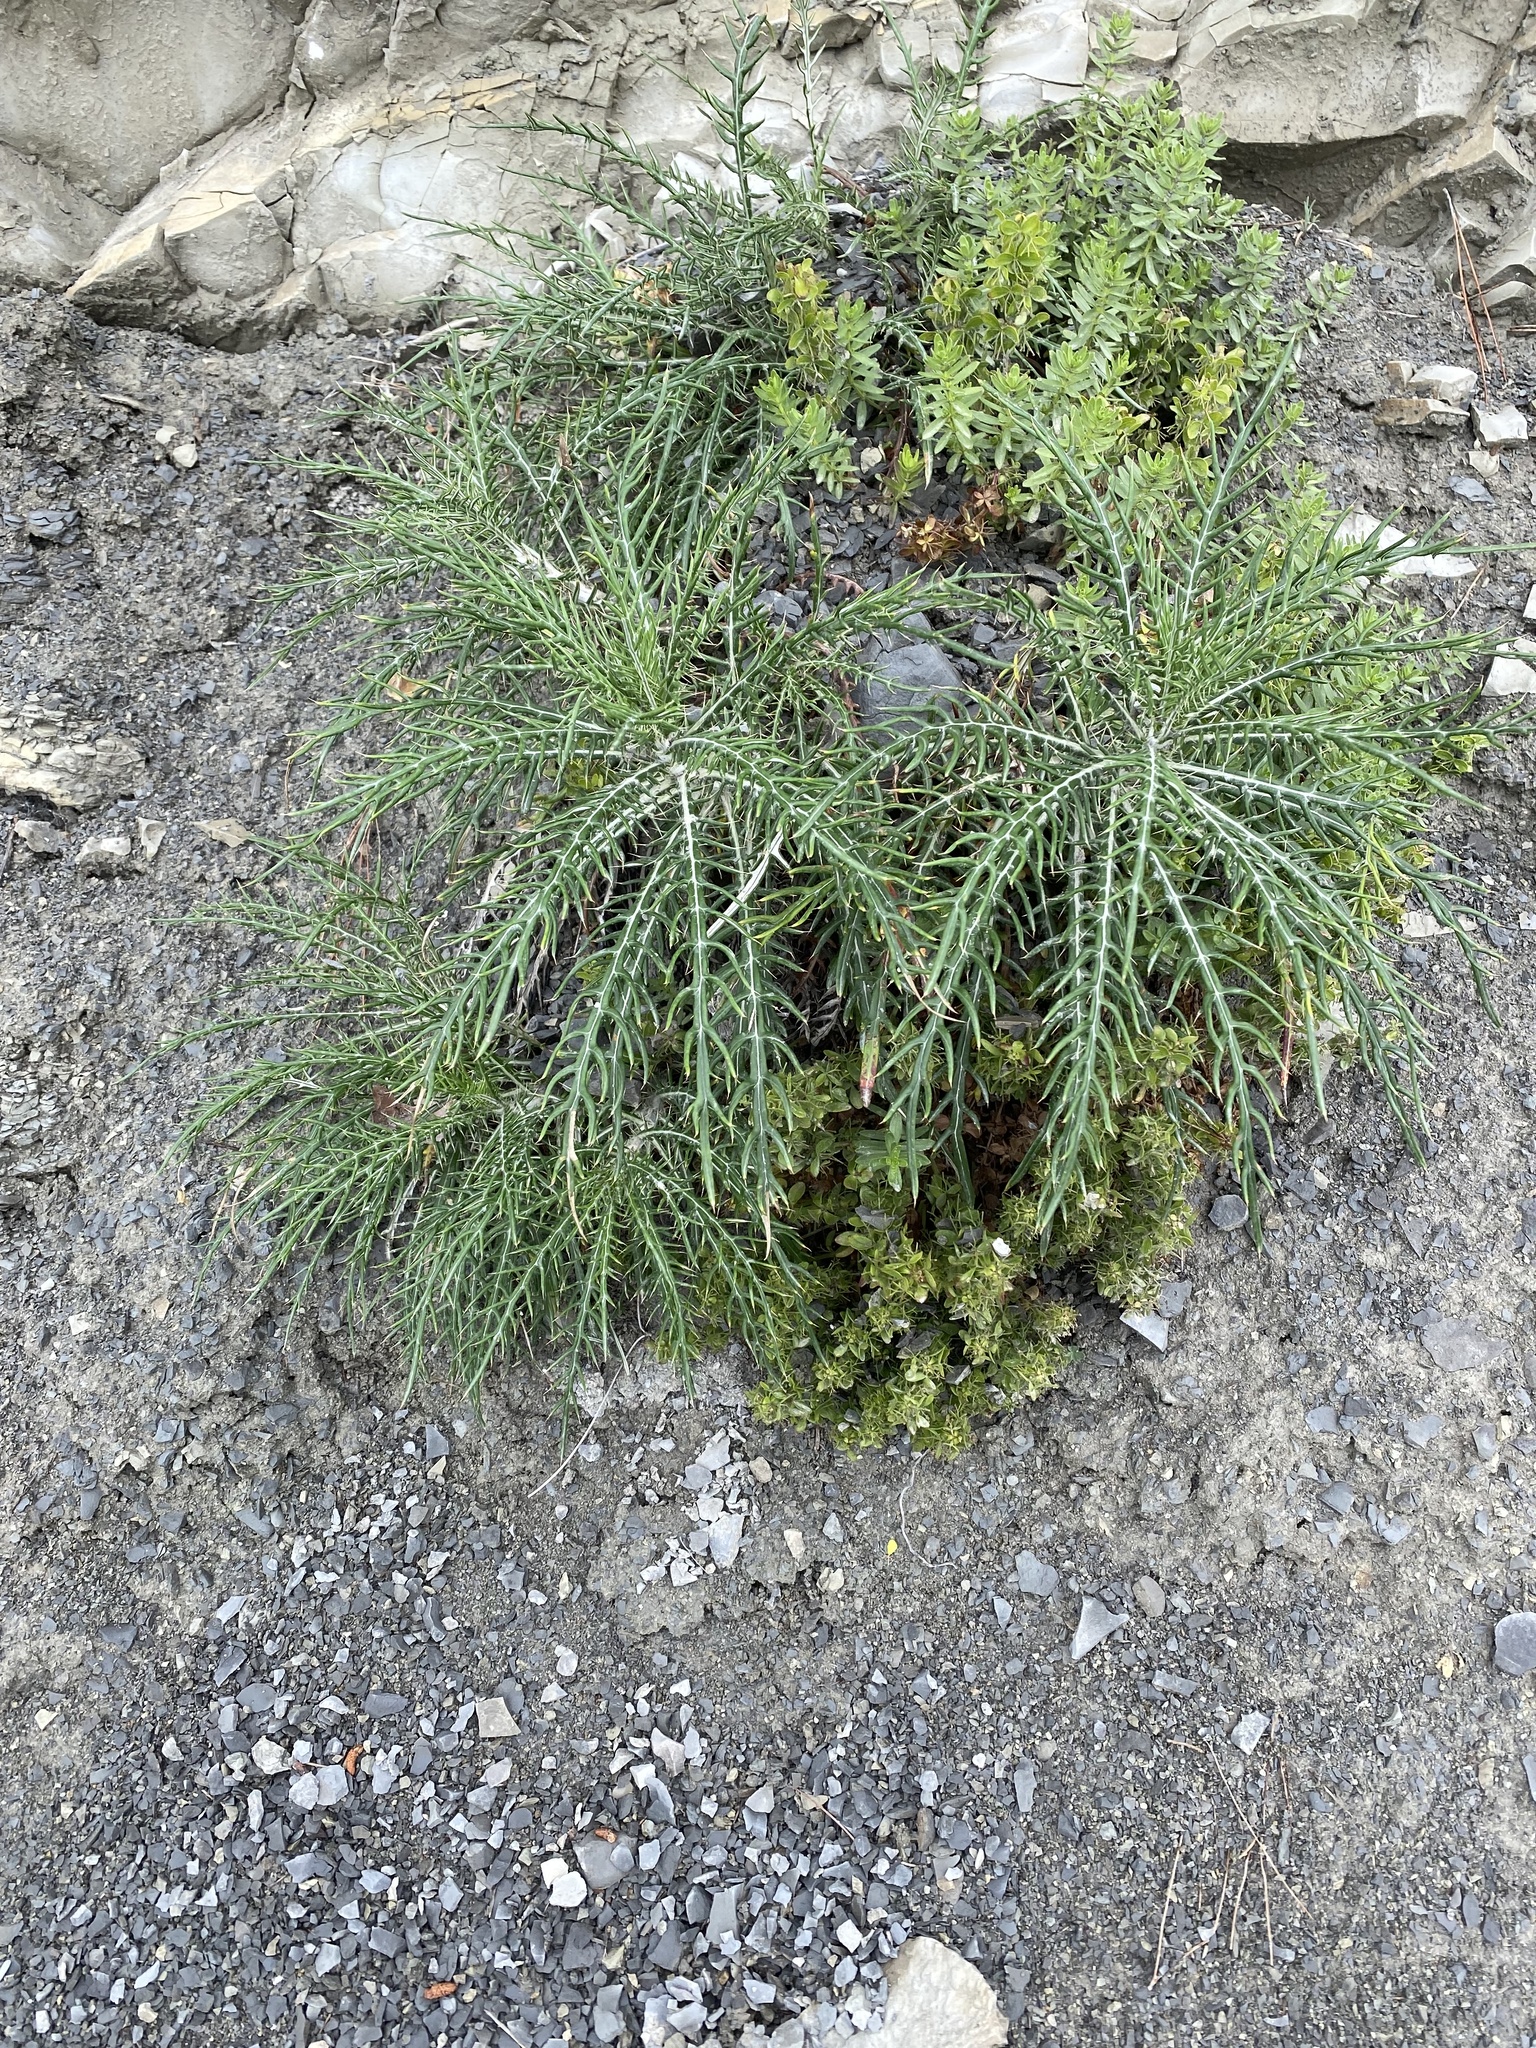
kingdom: Plantae
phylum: Tracheophyta
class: Magnoliopsida
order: Asterales
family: Asteraceae
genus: Ptilostemon
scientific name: Ptilostemon echinocephalus
